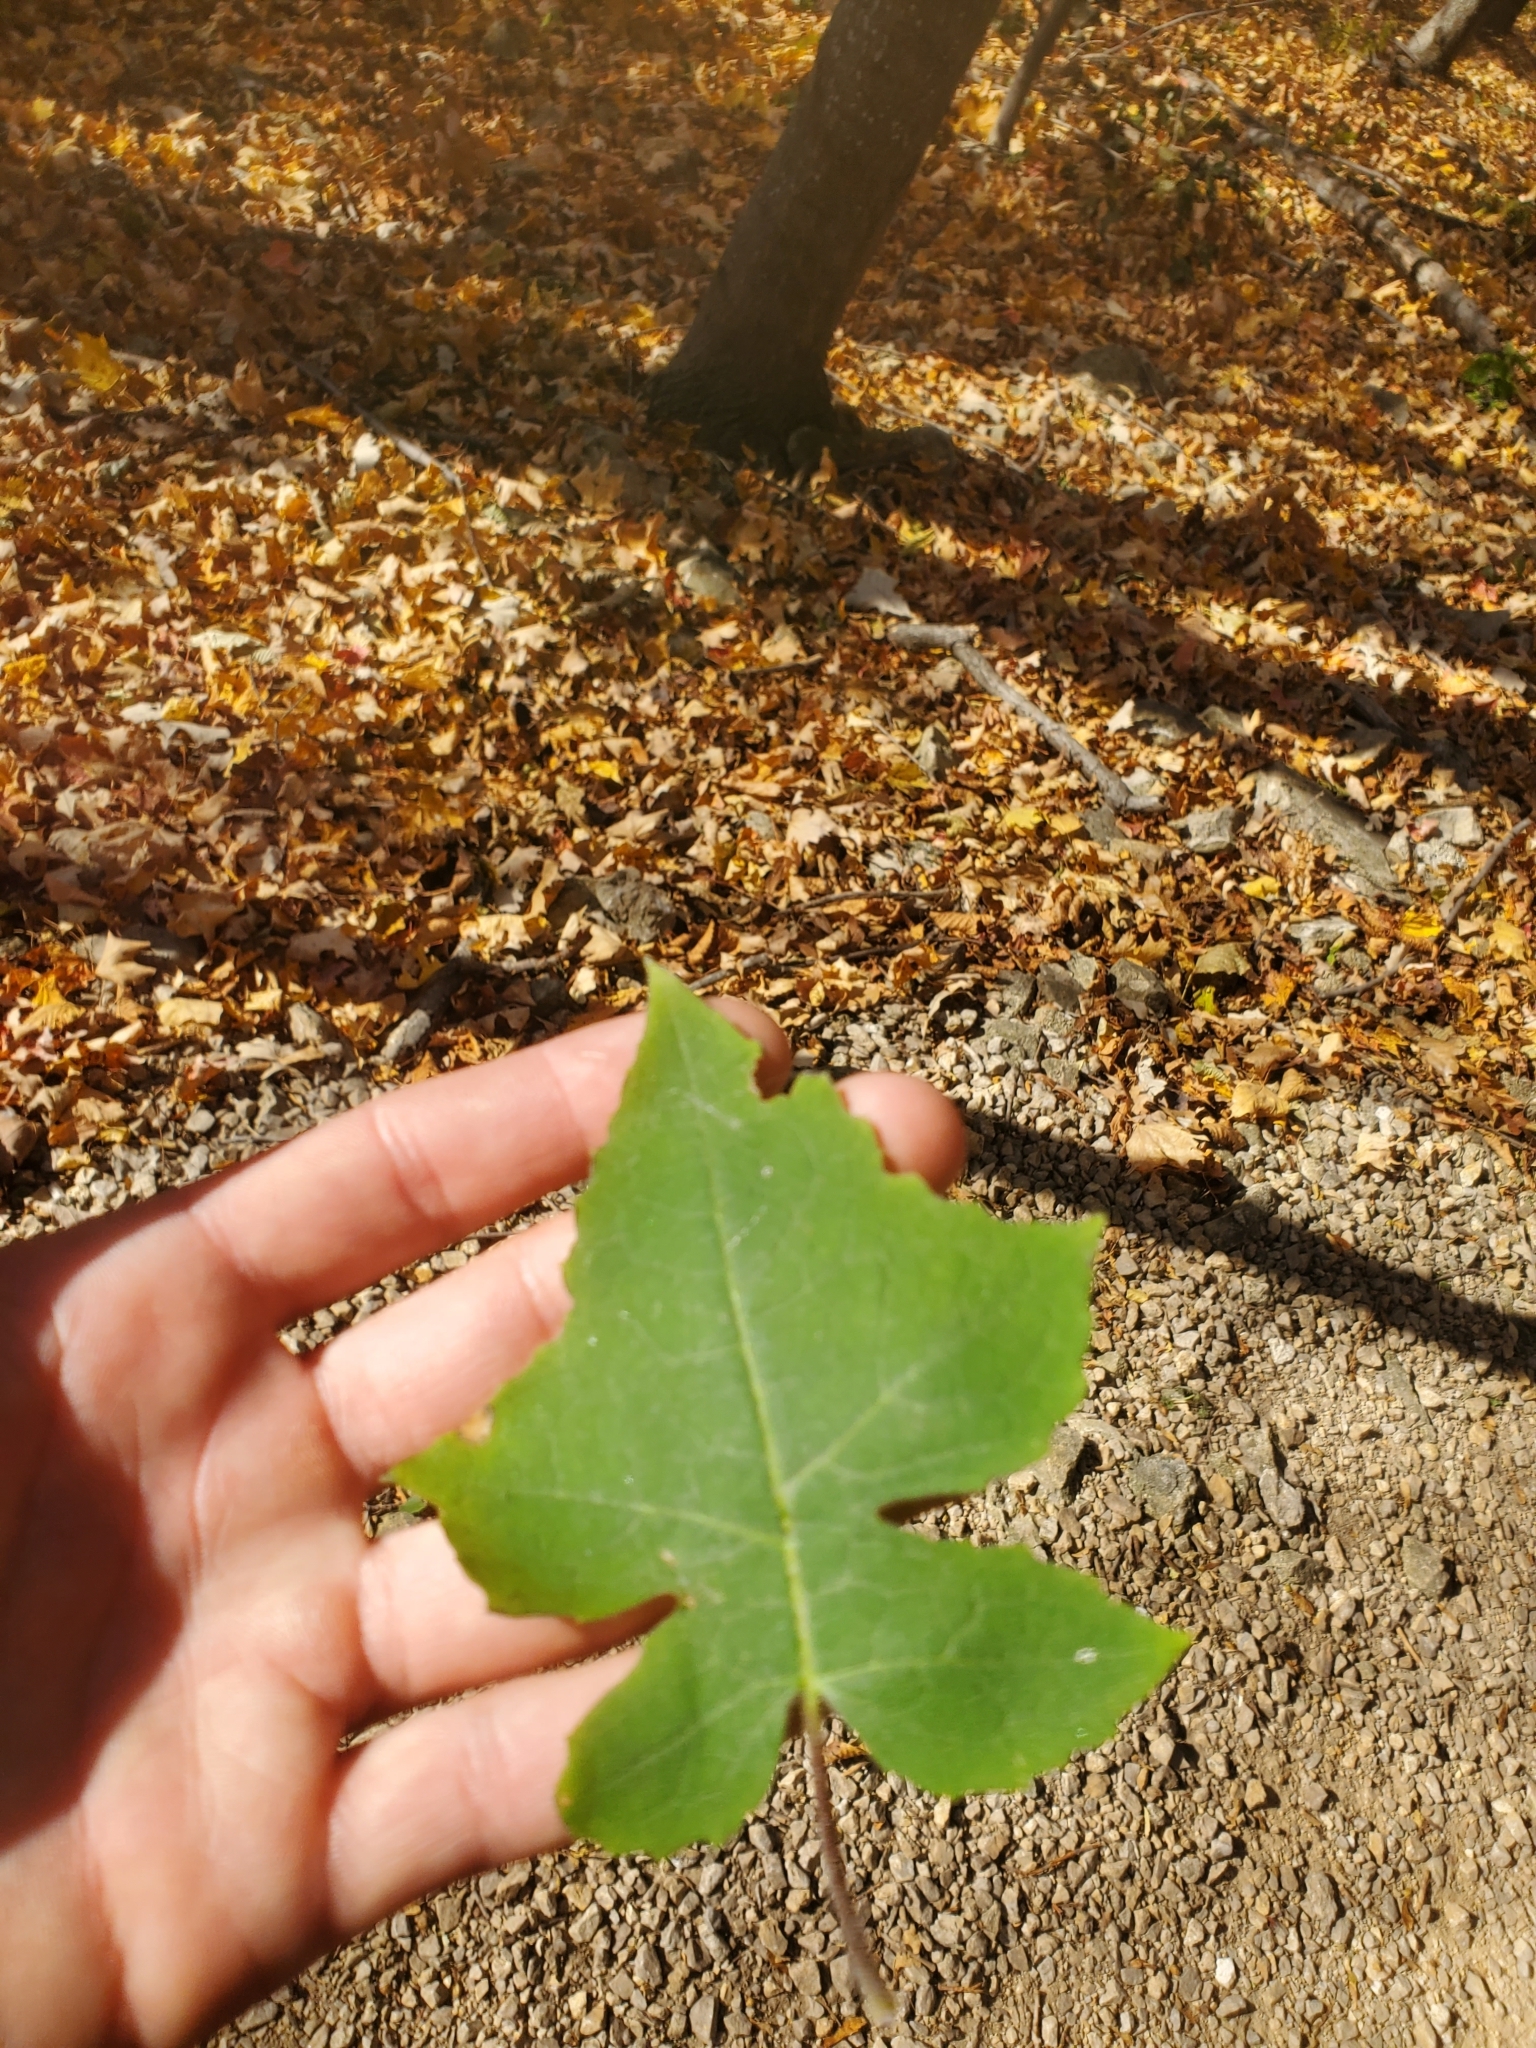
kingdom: Plantae
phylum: Tracheophyta
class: Magnoliopsida
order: Asterales
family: Asteraceae
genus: Polymnia
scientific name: Polymnia canadensis
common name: Pale-flowered leafcup
